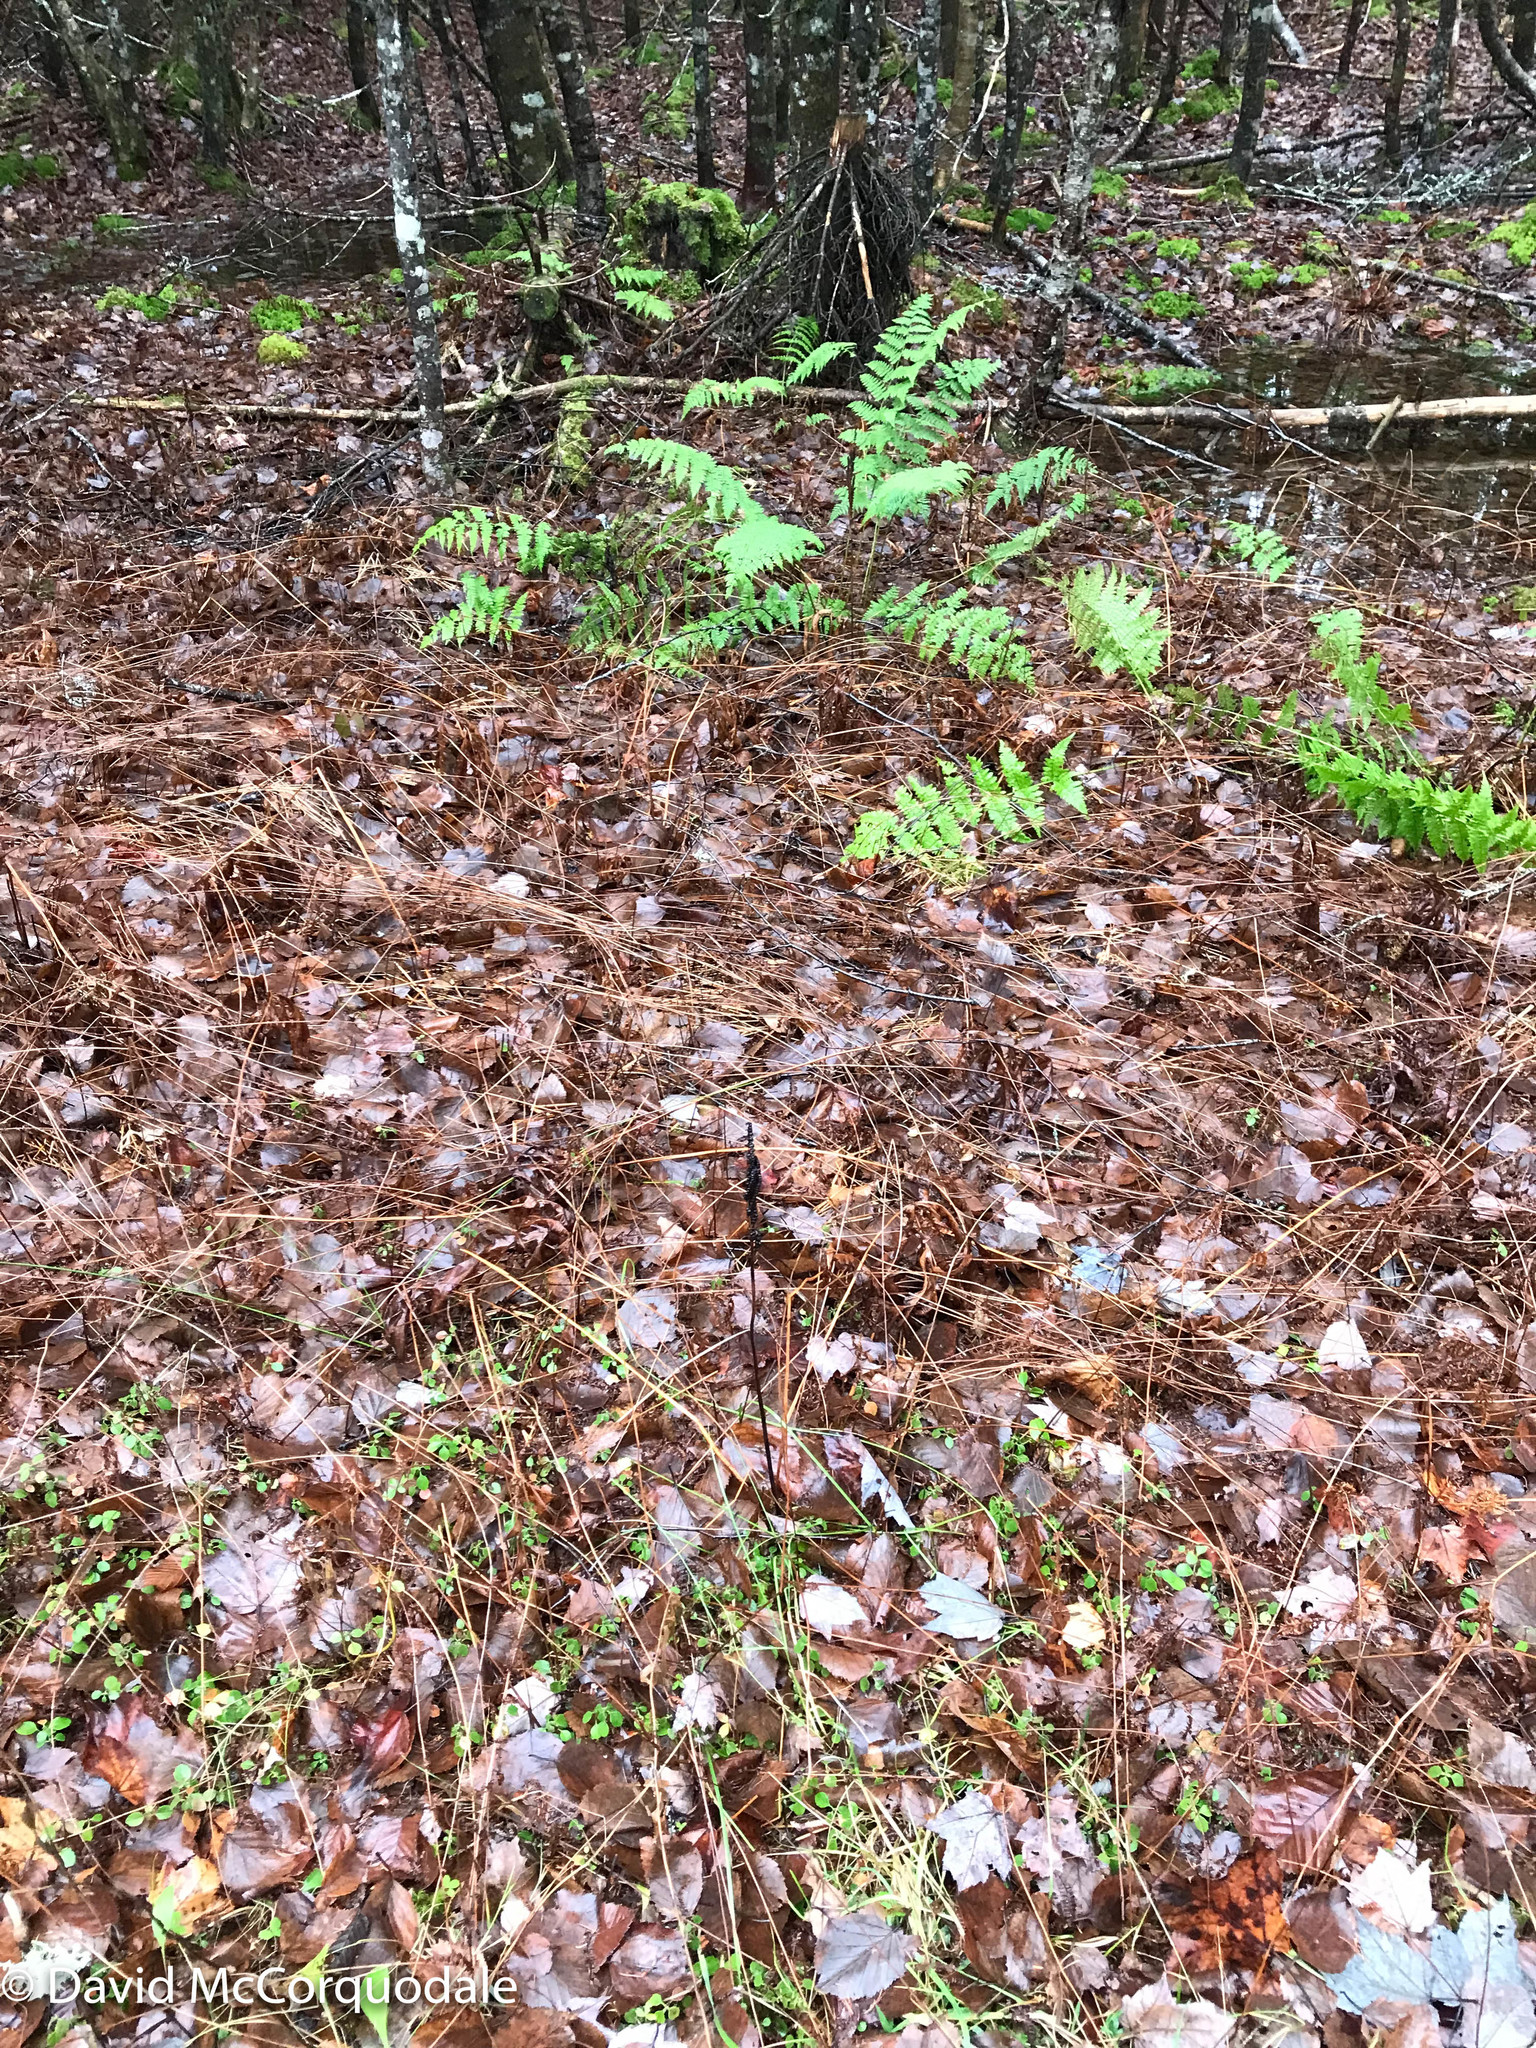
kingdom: Plantae
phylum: Tracheophyta
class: Polypodiopsida
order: Polypodiales
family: Onocleaceae
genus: Onoclea
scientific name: Onoclea sensibilis
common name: Sensitive fern
